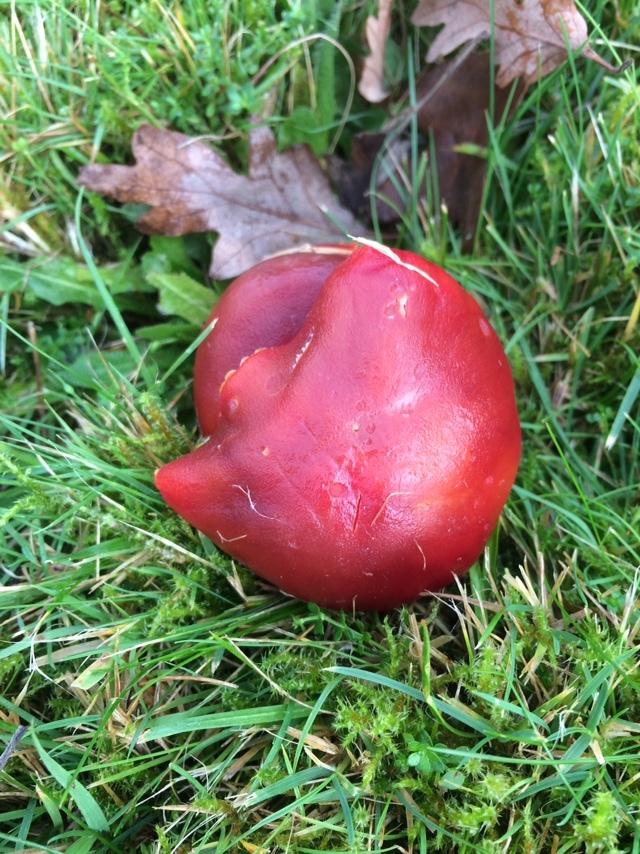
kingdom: Fungi
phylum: Basidiomycota
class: Agaricomycetes
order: Agaricales
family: Hygrophoraceae
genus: Hygrocybe
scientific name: Hygrocybe punicea
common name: Crimson waxcap
